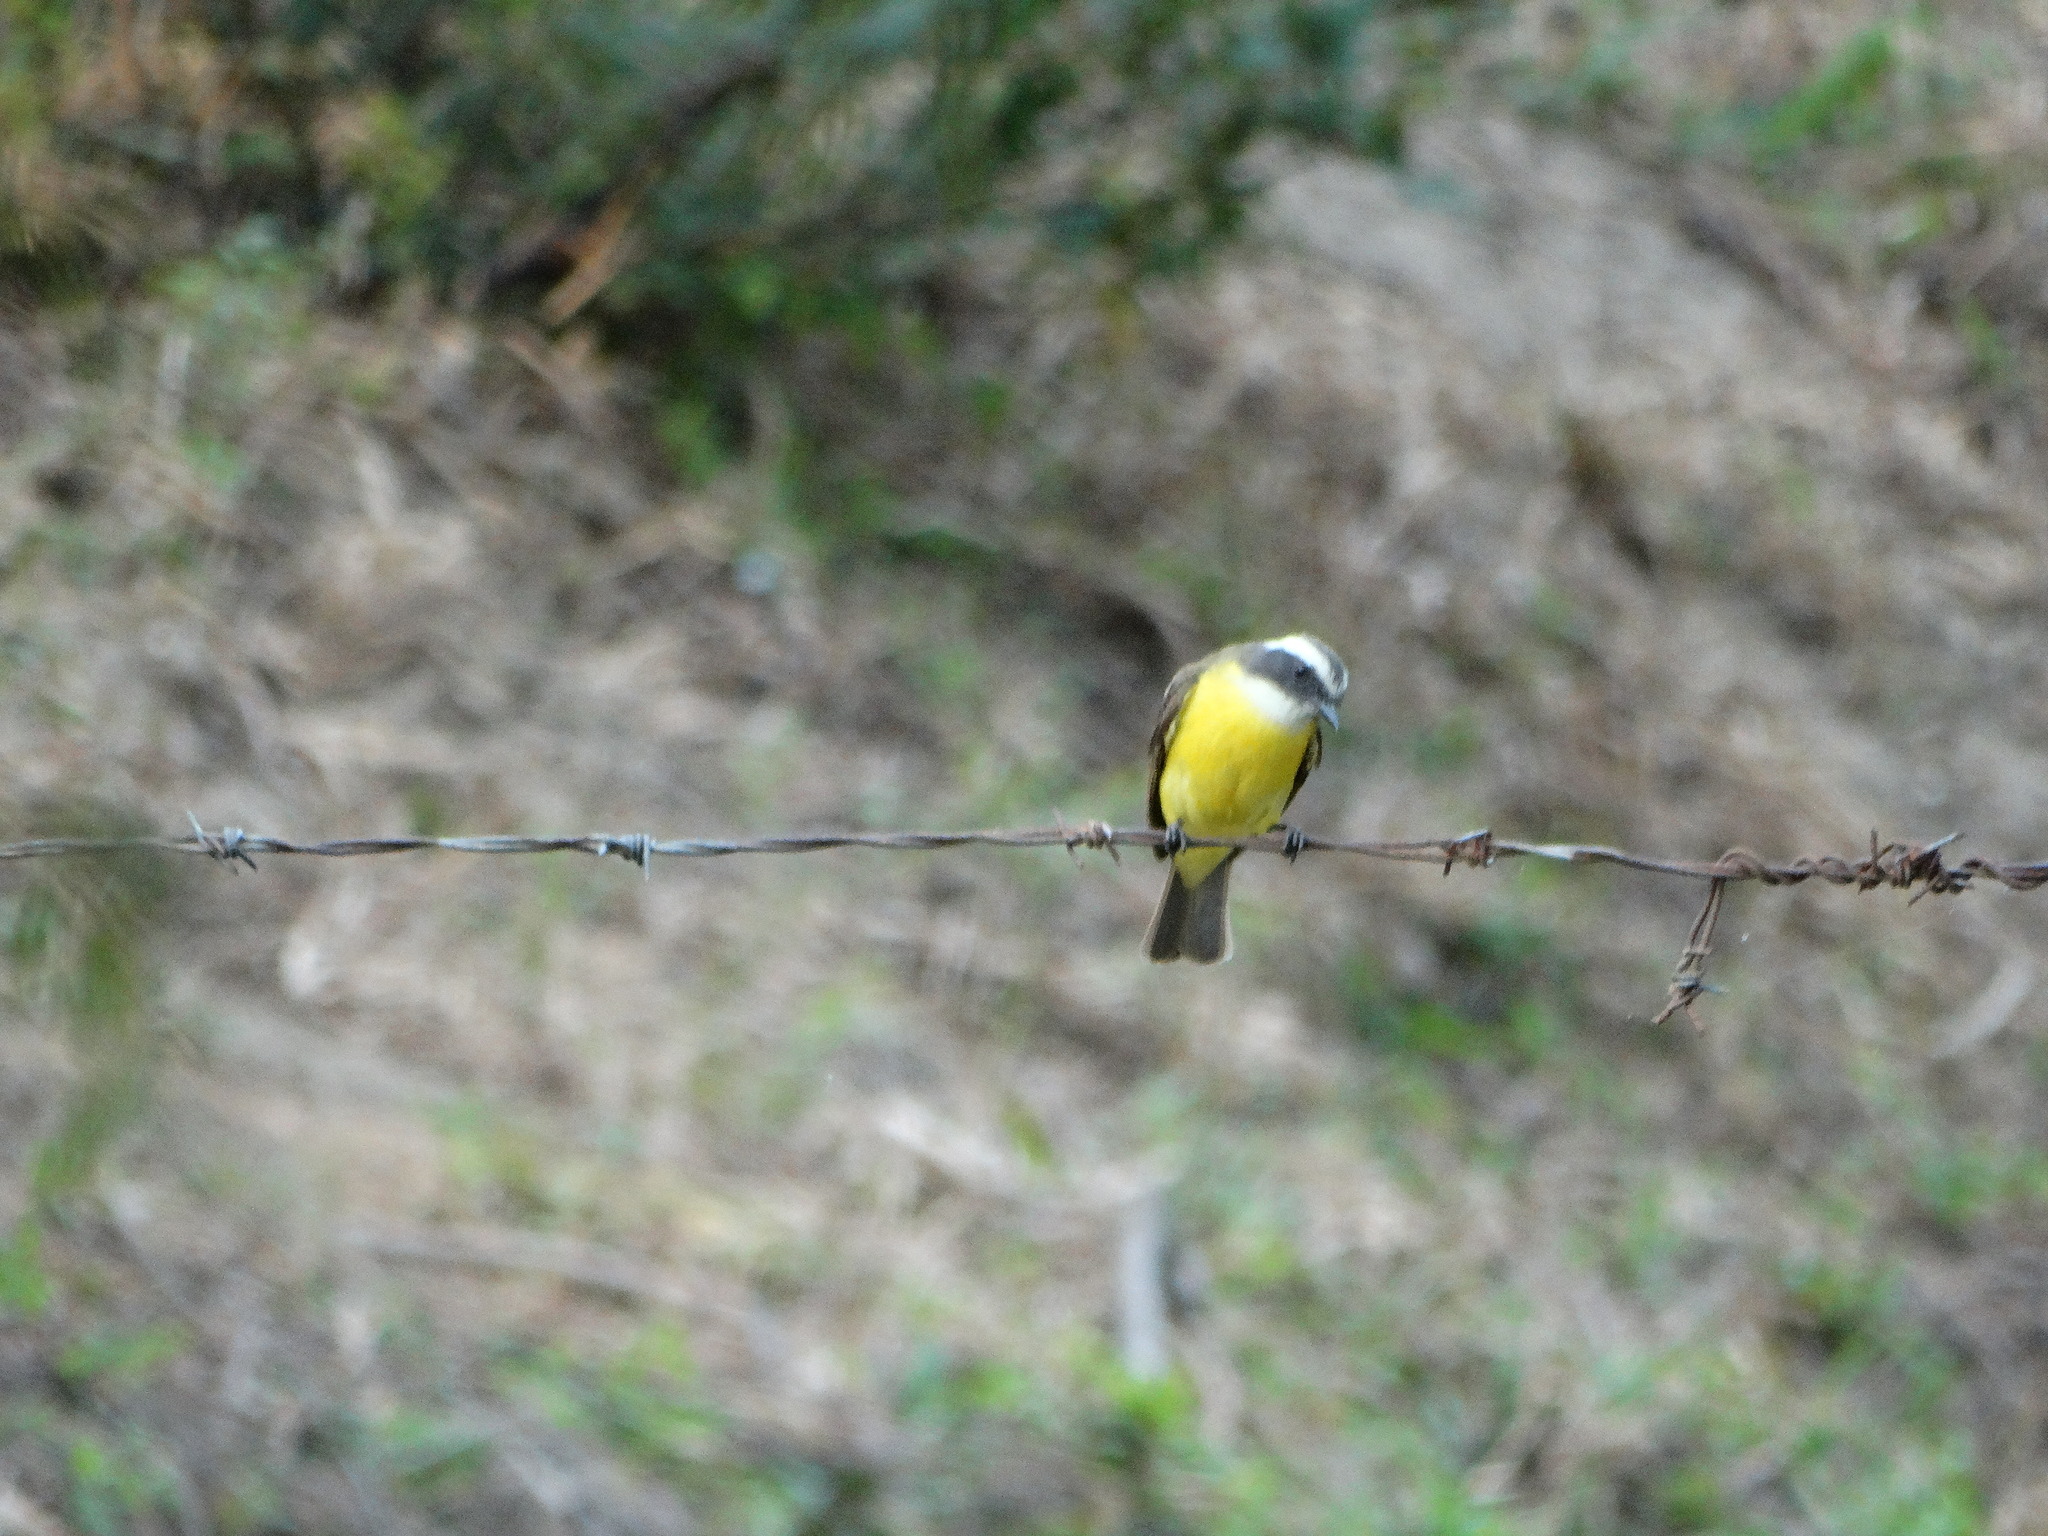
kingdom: Animalia
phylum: Chordata
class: Aves
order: Passeriformes
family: Tyrannidae
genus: Myiozetetes
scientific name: Myiozetetes similis
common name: Social flycatcher
